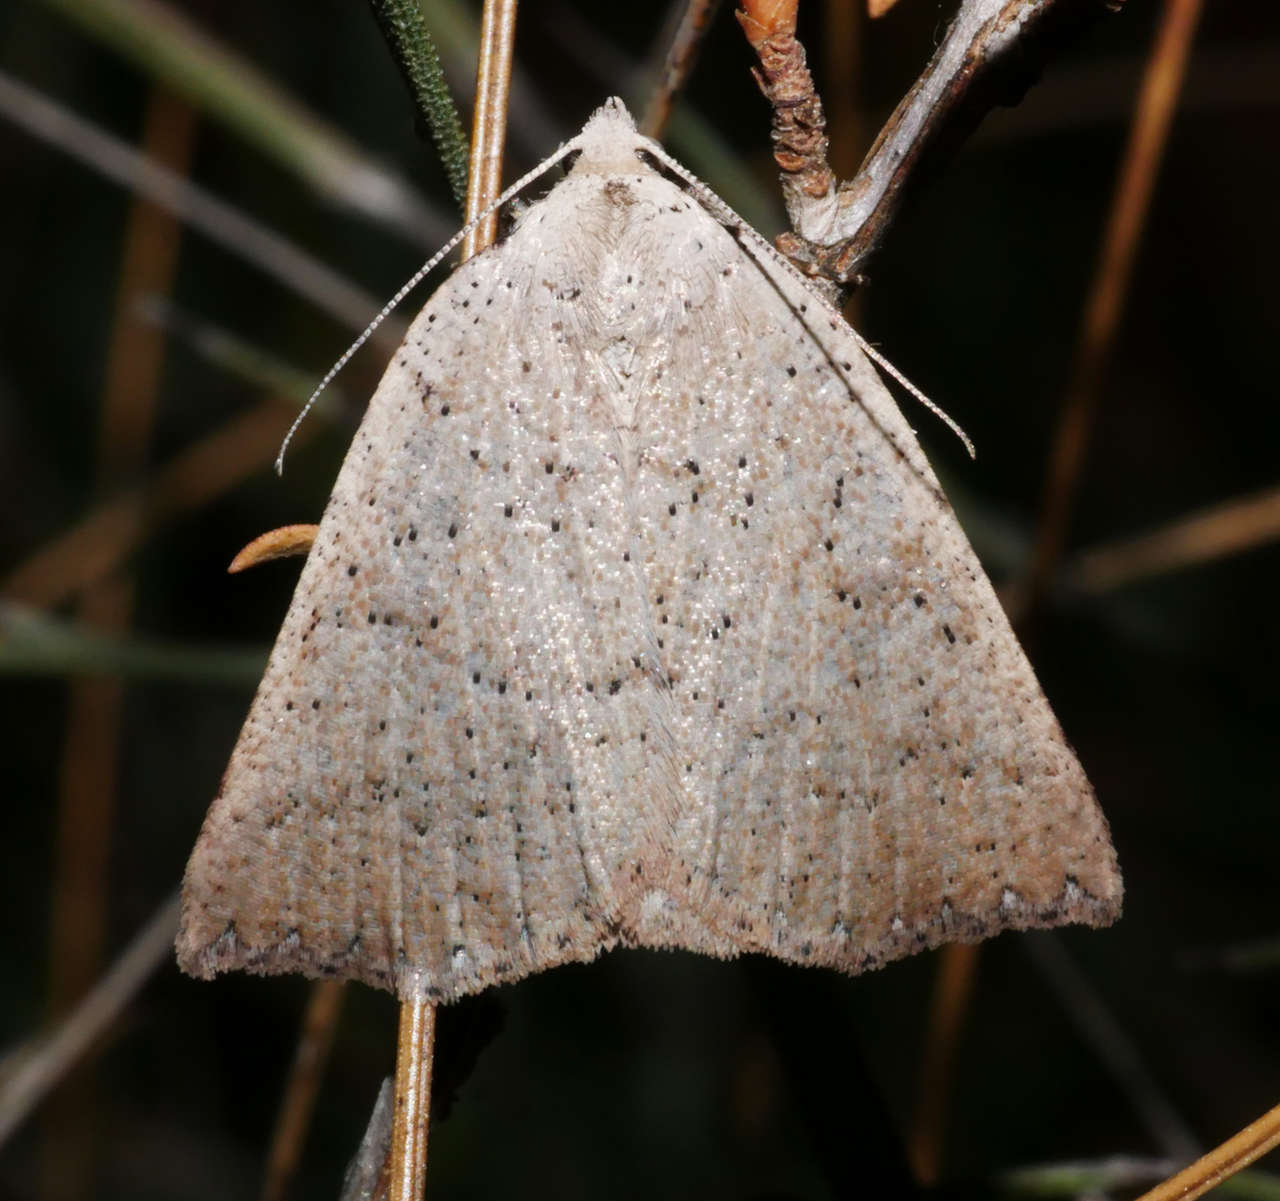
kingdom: Animalia
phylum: Arthropoda
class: Insecta
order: Lepidoptera
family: Geometridae
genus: Amelora
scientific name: Amelora
